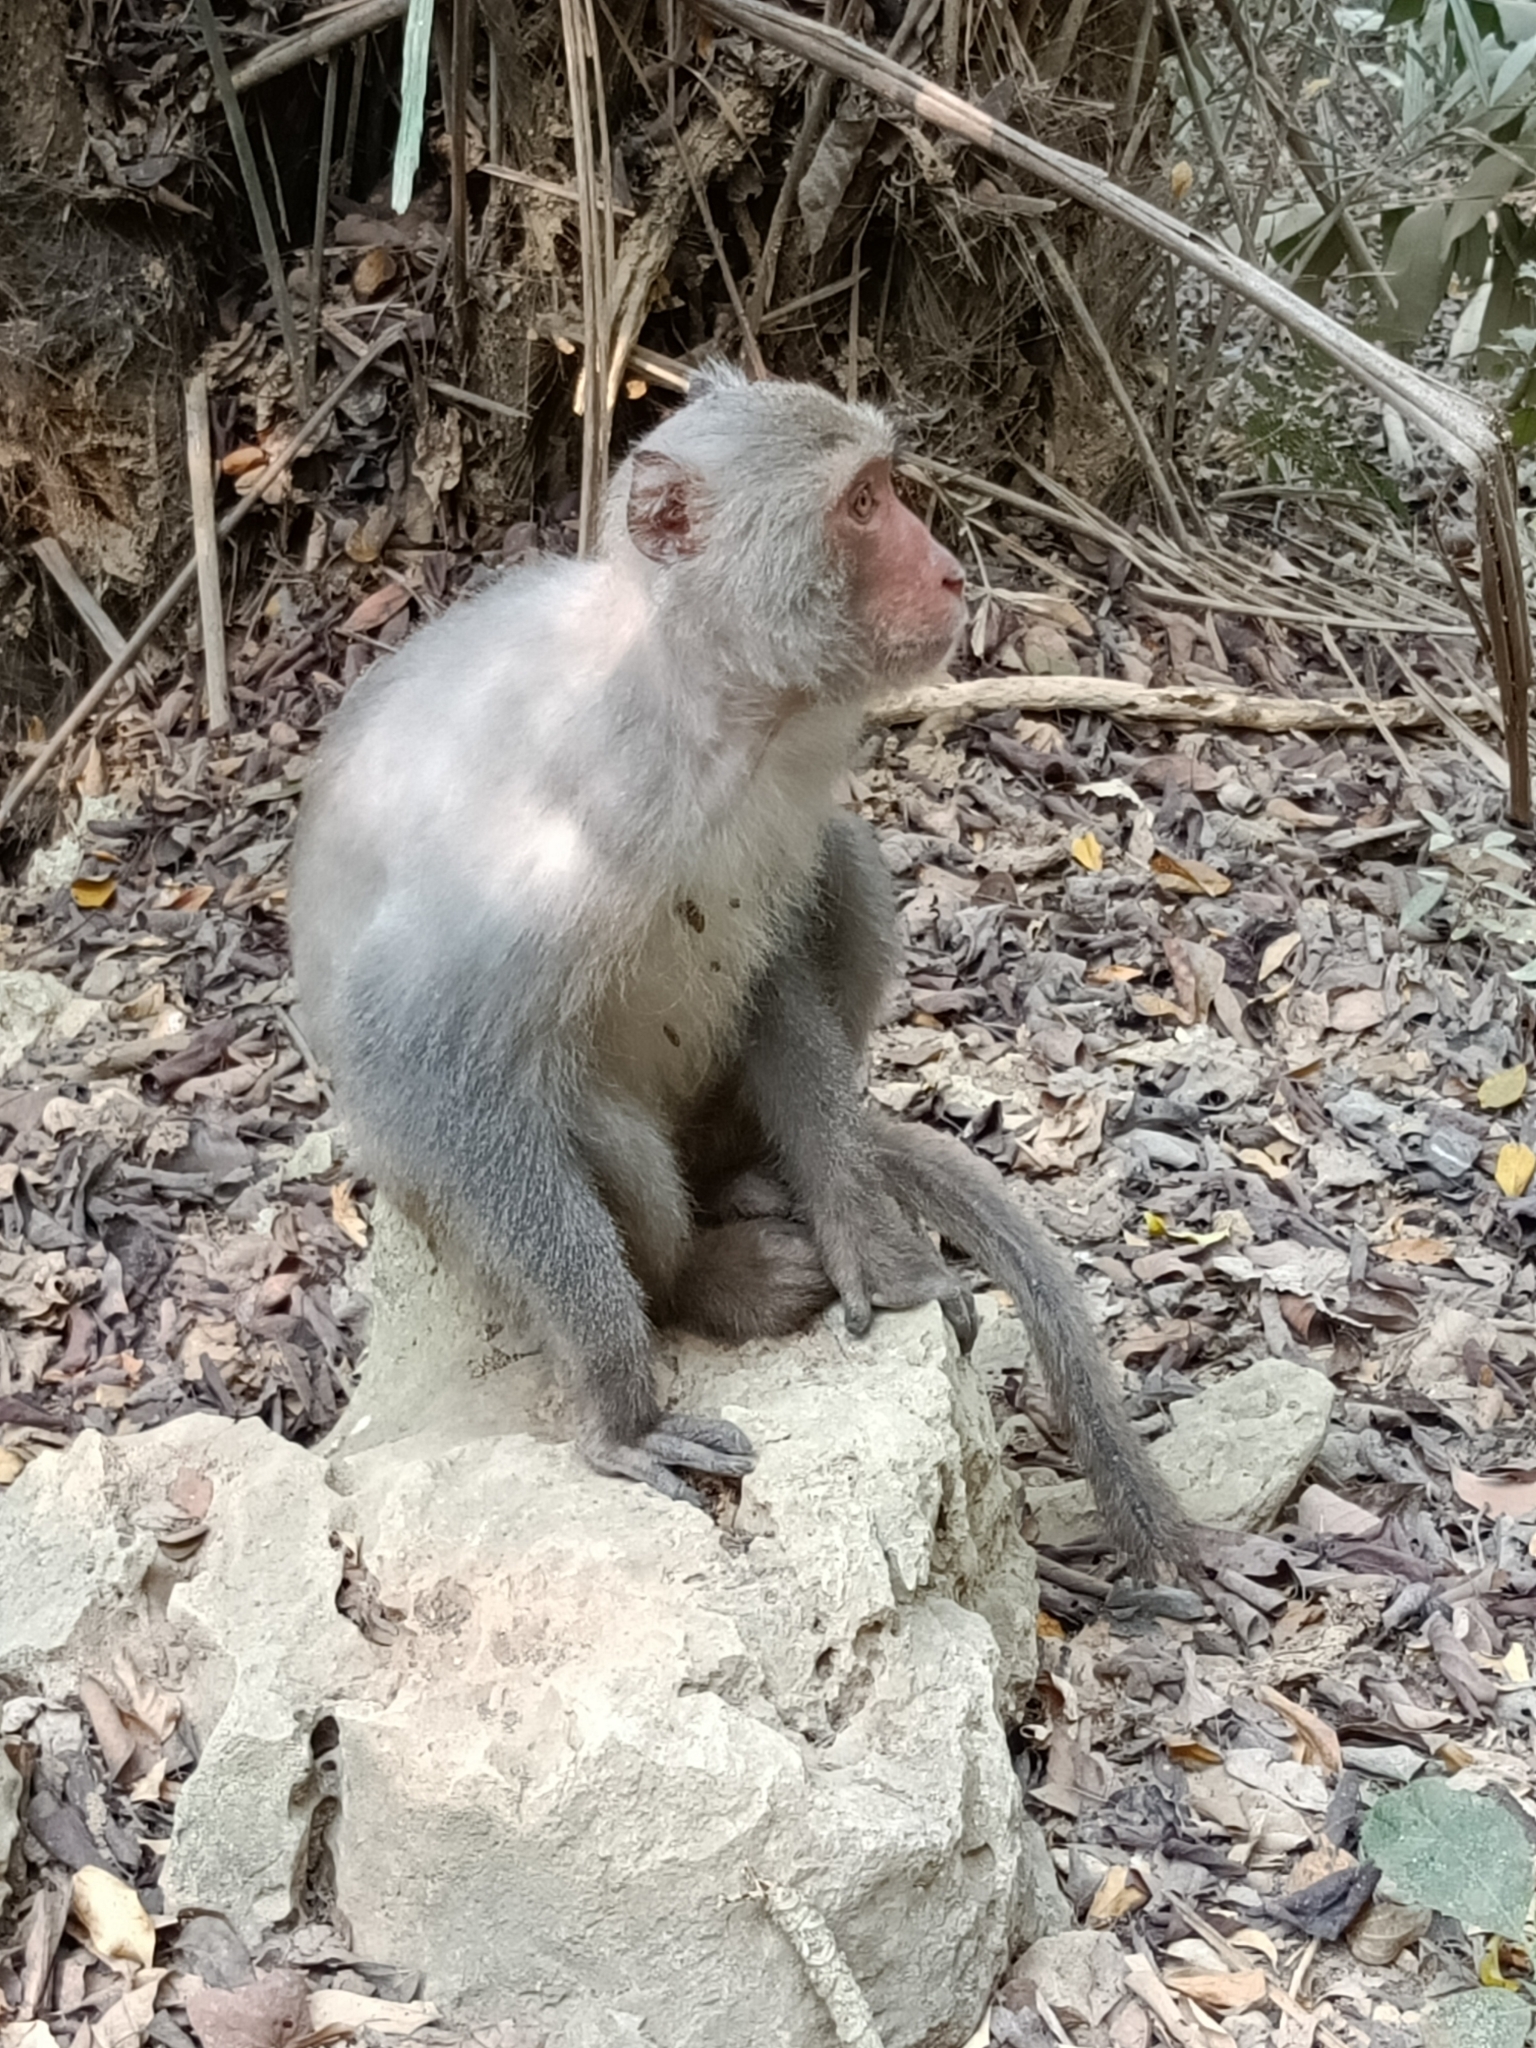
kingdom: Animalia
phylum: Chordata
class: Mammalia
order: Primates
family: Cercopithecidae
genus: Macaca
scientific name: Macaca cyclopis
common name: Formosan rock macaque
